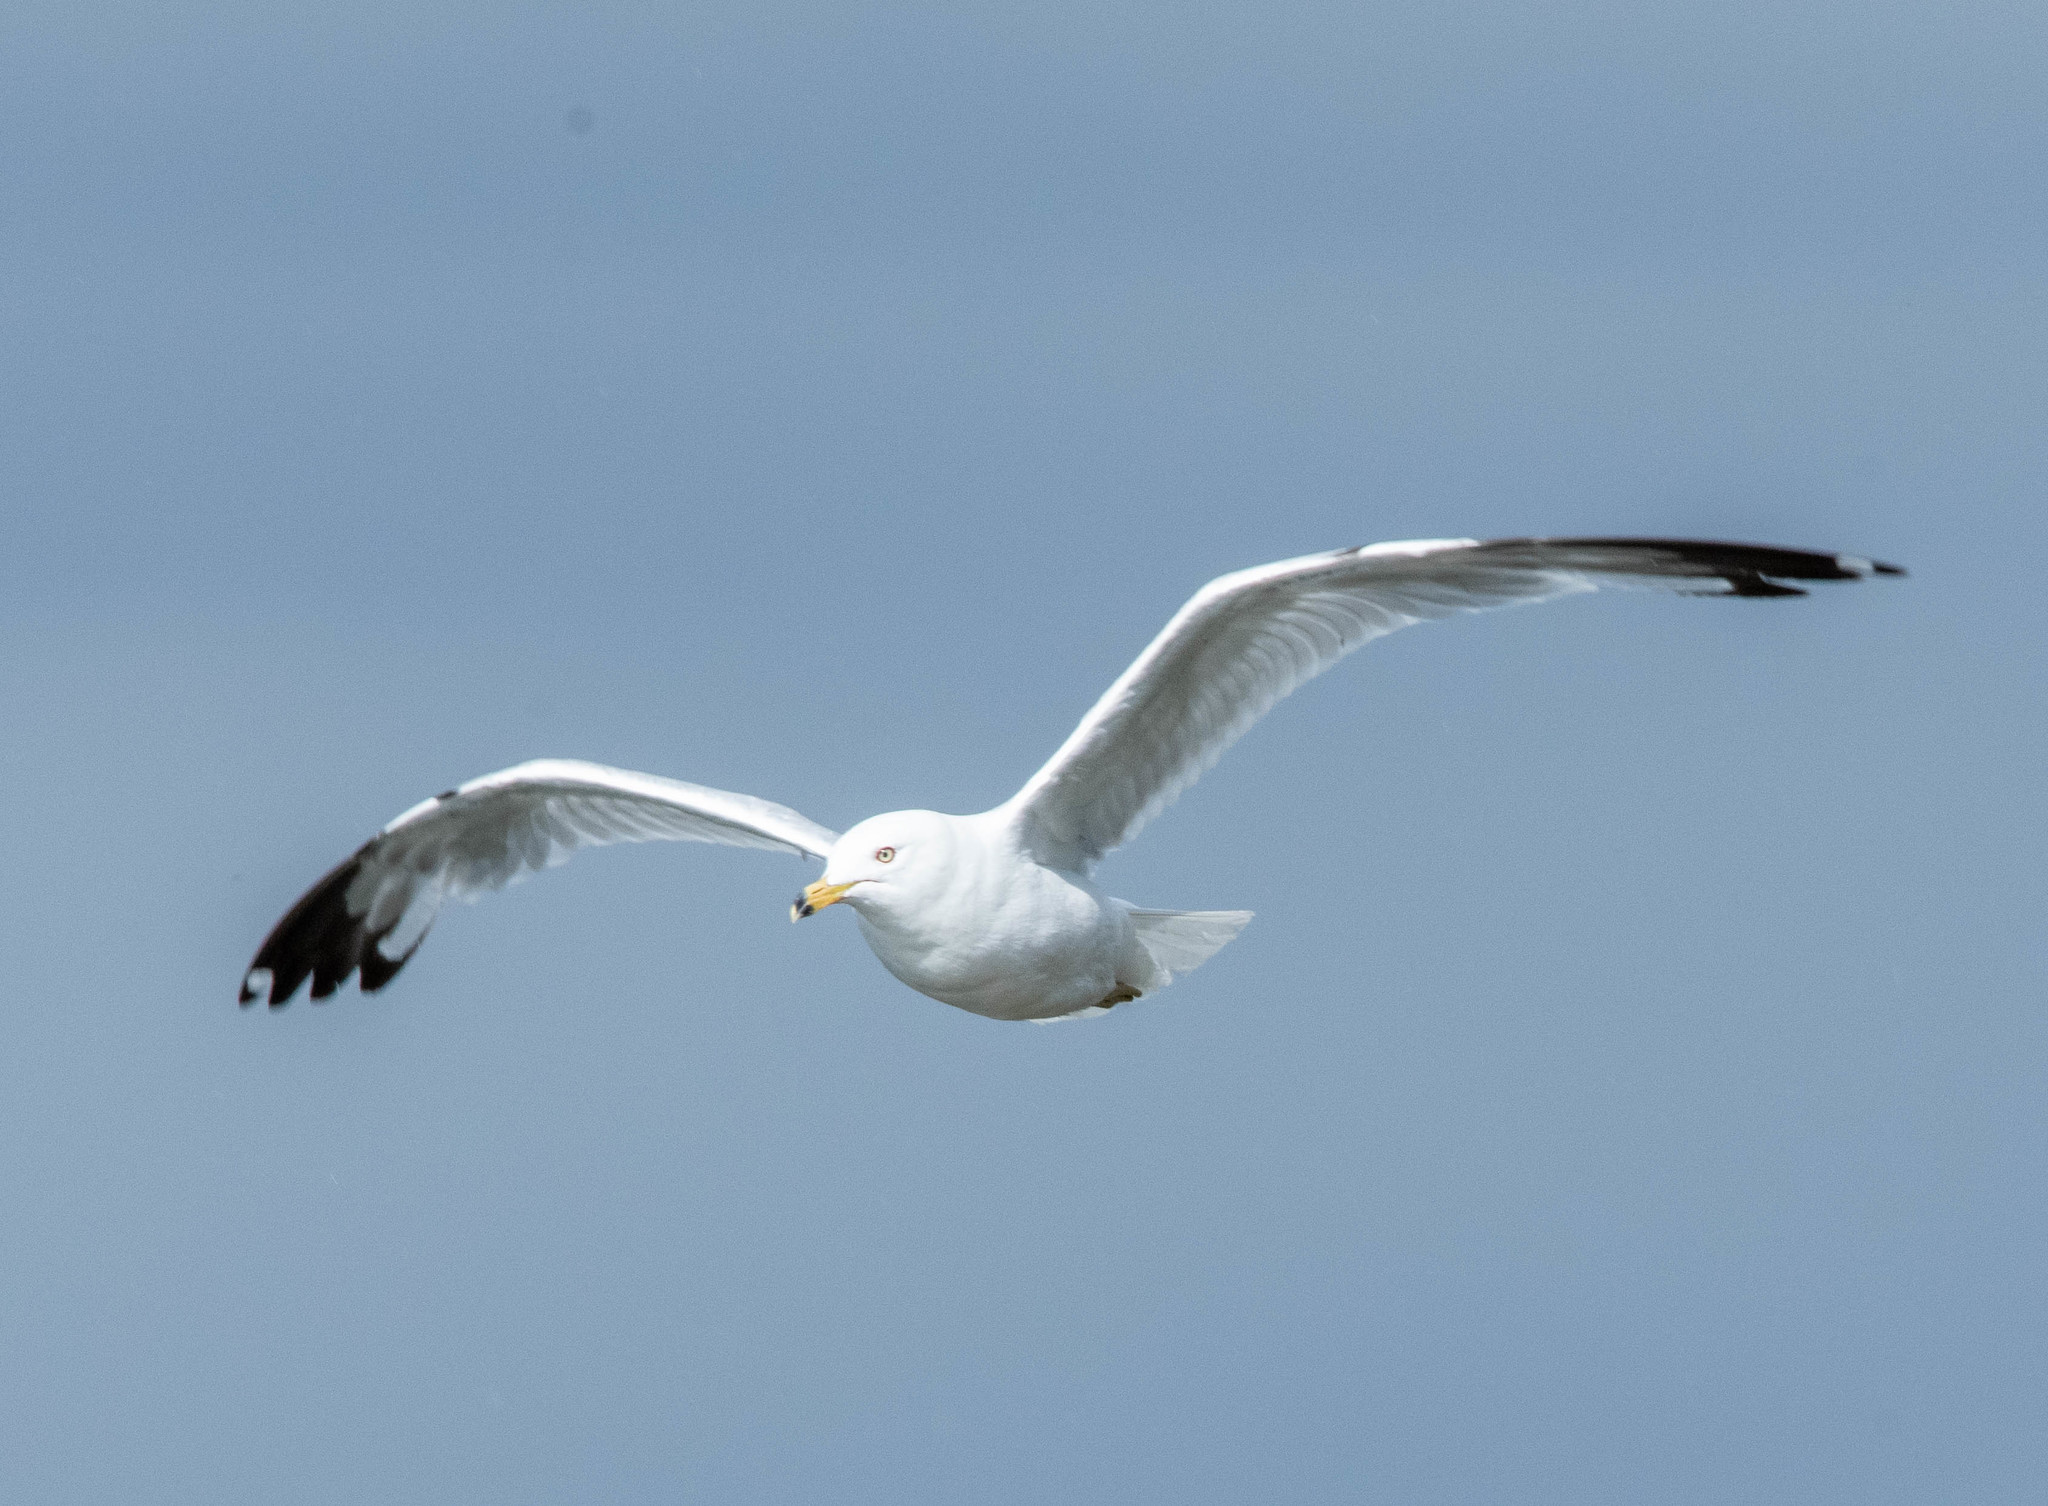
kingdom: Animalia
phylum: Chordata
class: Aves
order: Charadriiformes
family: Laridae
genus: Larus
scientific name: Larus delawarensis
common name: Ring-billed gull
